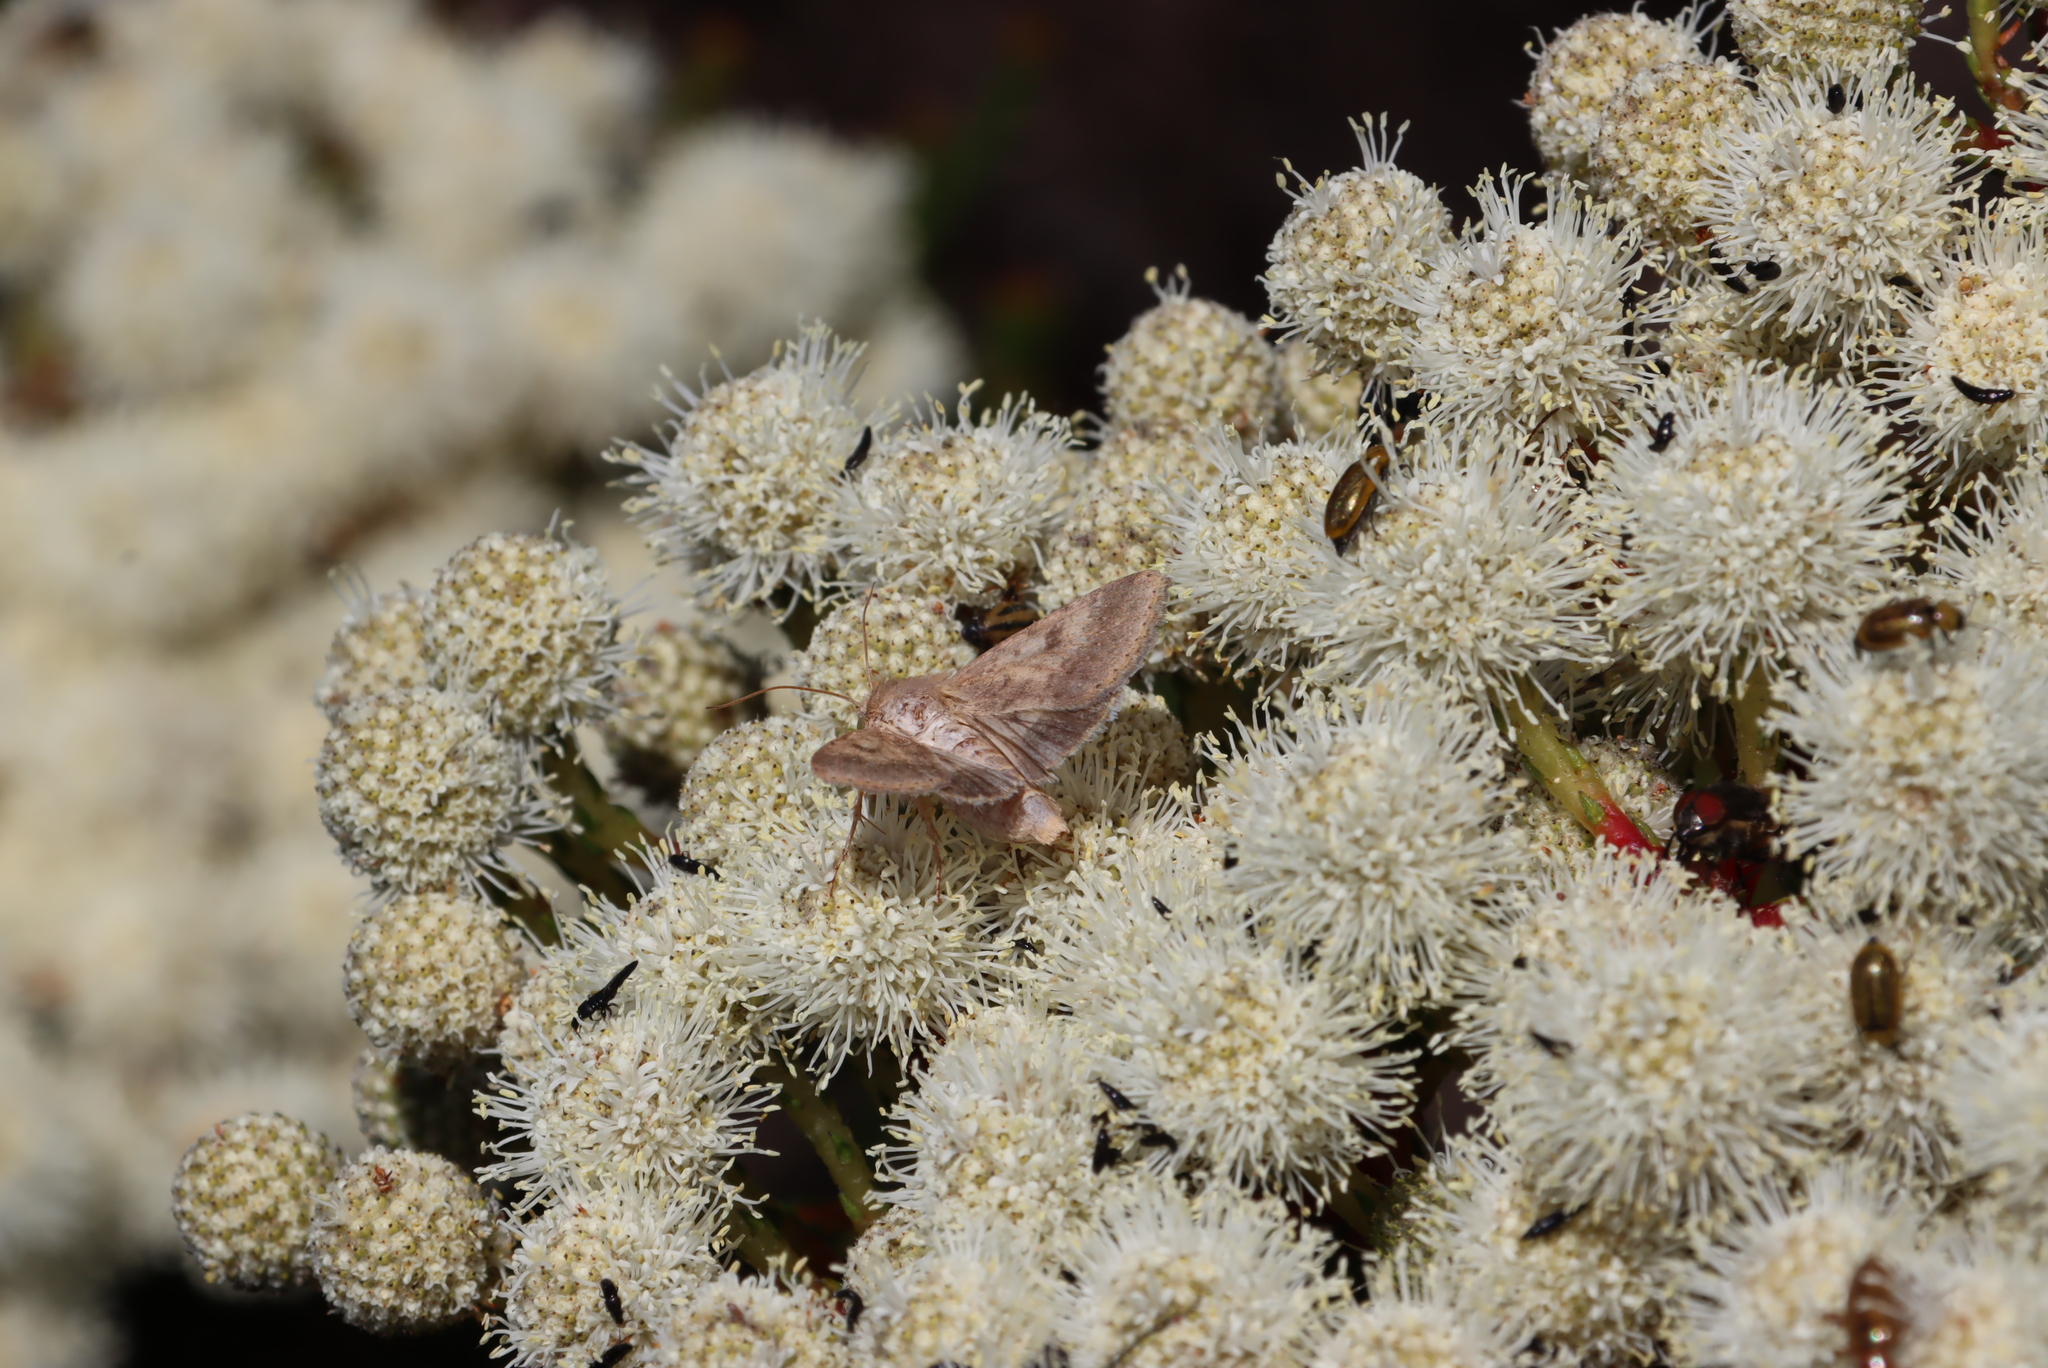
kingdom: Animalia
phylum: Arthropoda
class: Insecta
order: Lepidoptera
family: Noctuidae
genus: Helicoverpa
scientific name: Helicoverpa armigera
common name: Cotton bollworm
